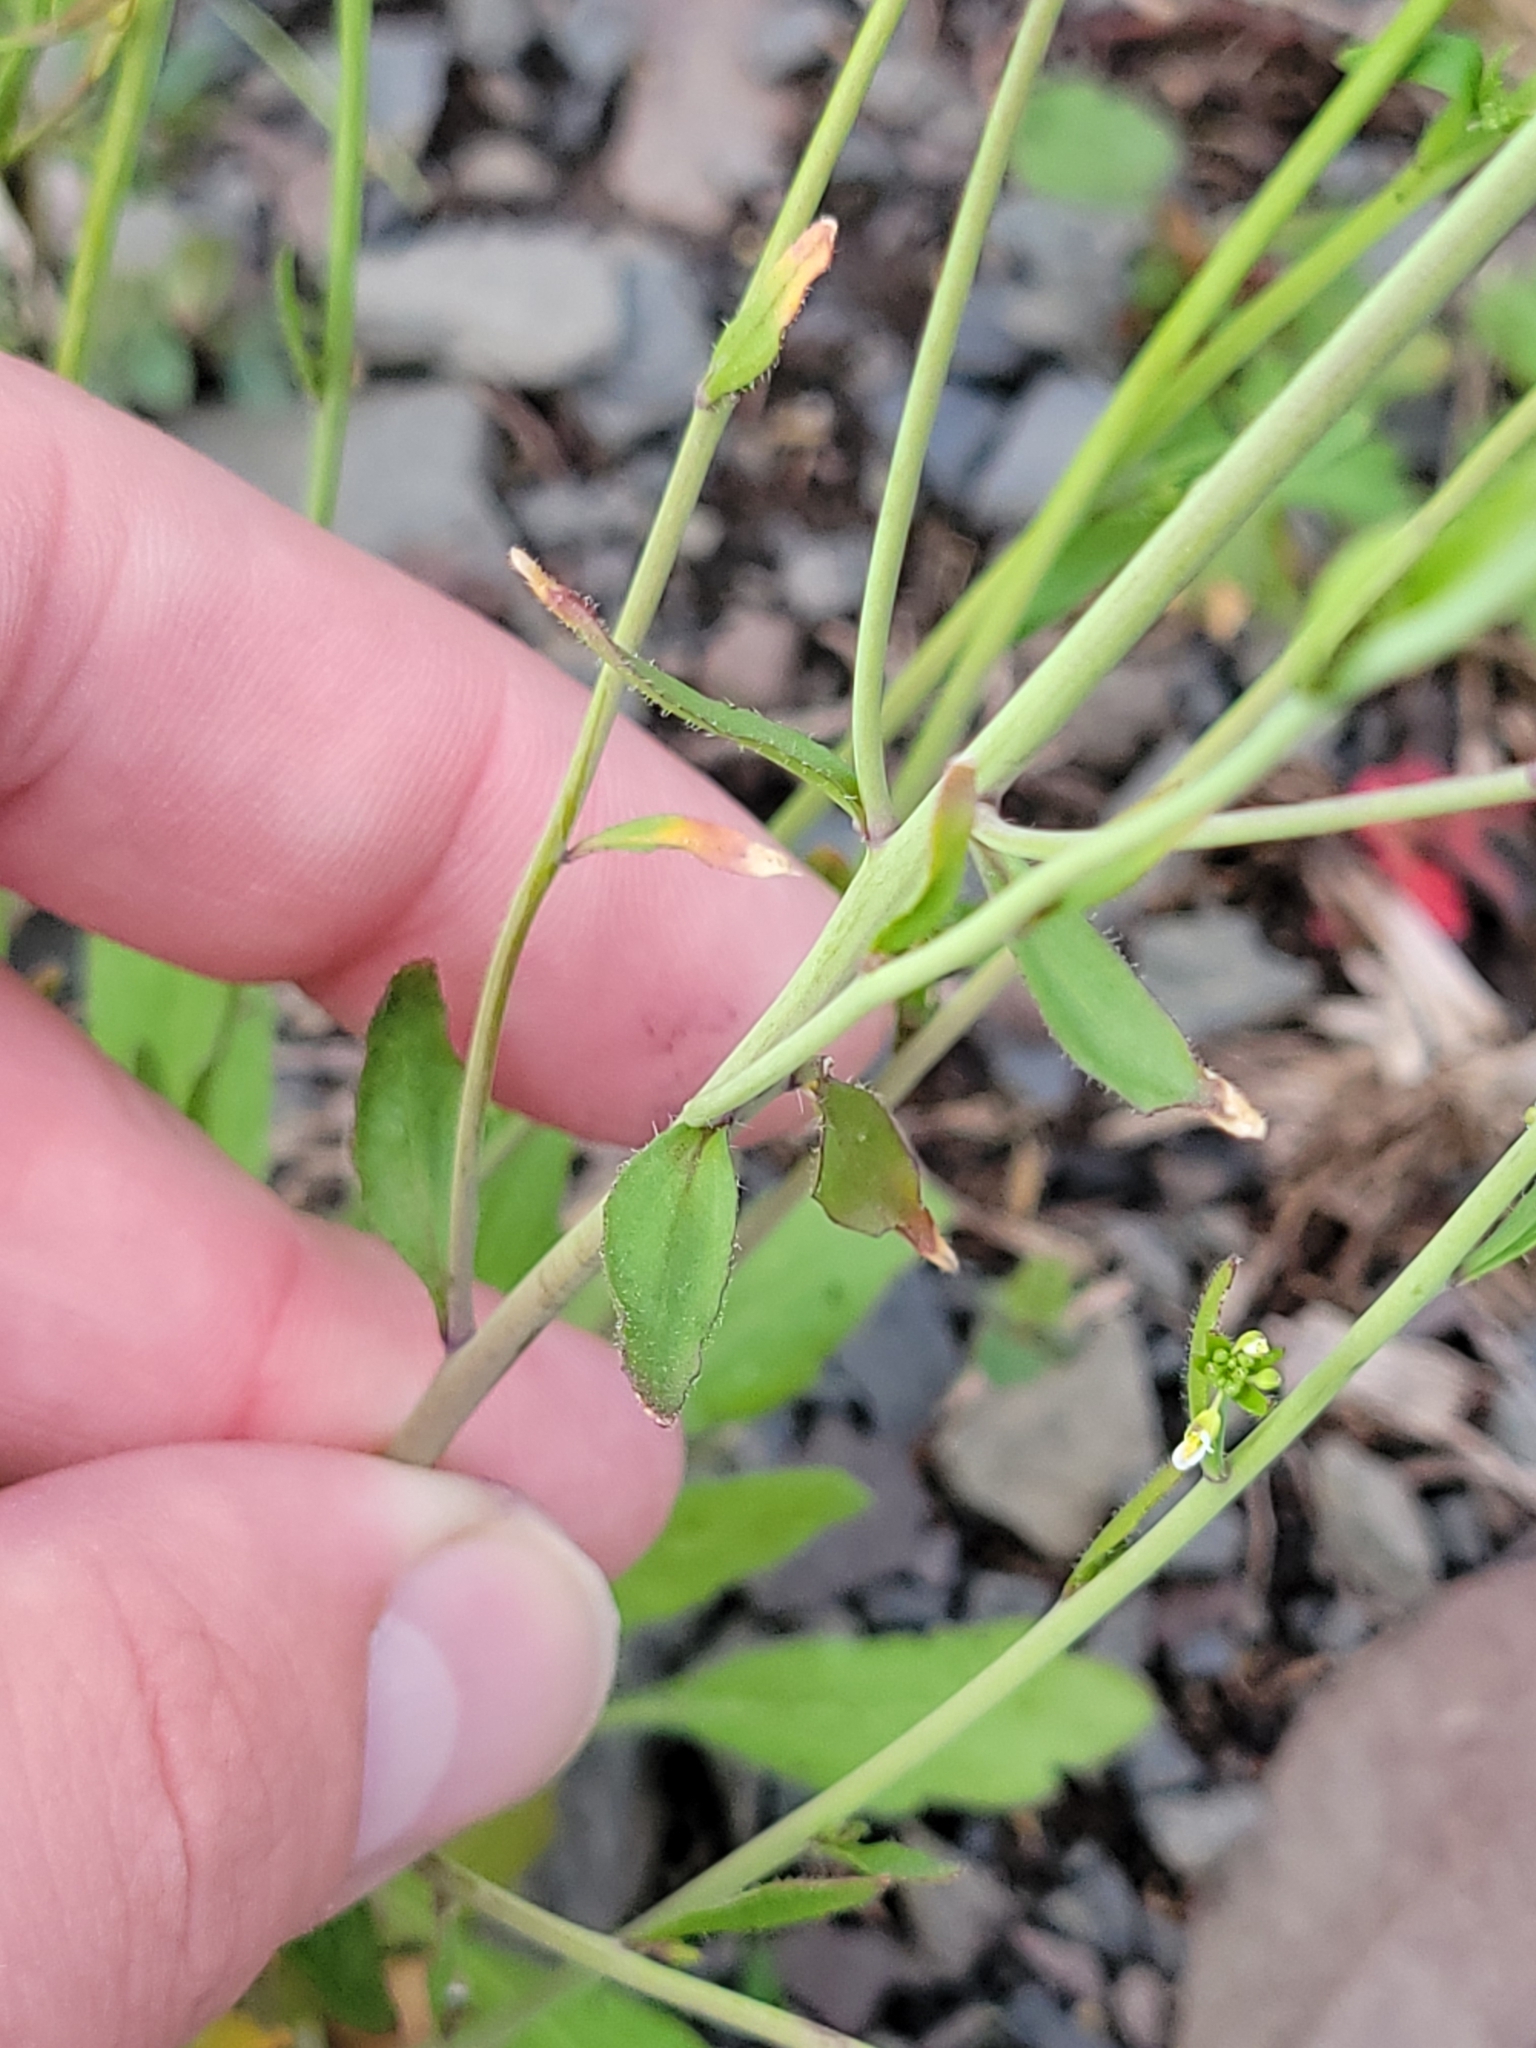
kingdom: Plantae
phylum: Tracheophyta
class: Magnoliopsida
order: Brassicales
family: Brassicaceae
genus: Arabidopsis
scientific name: Arabidopsis thaliana
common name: Thale cress
